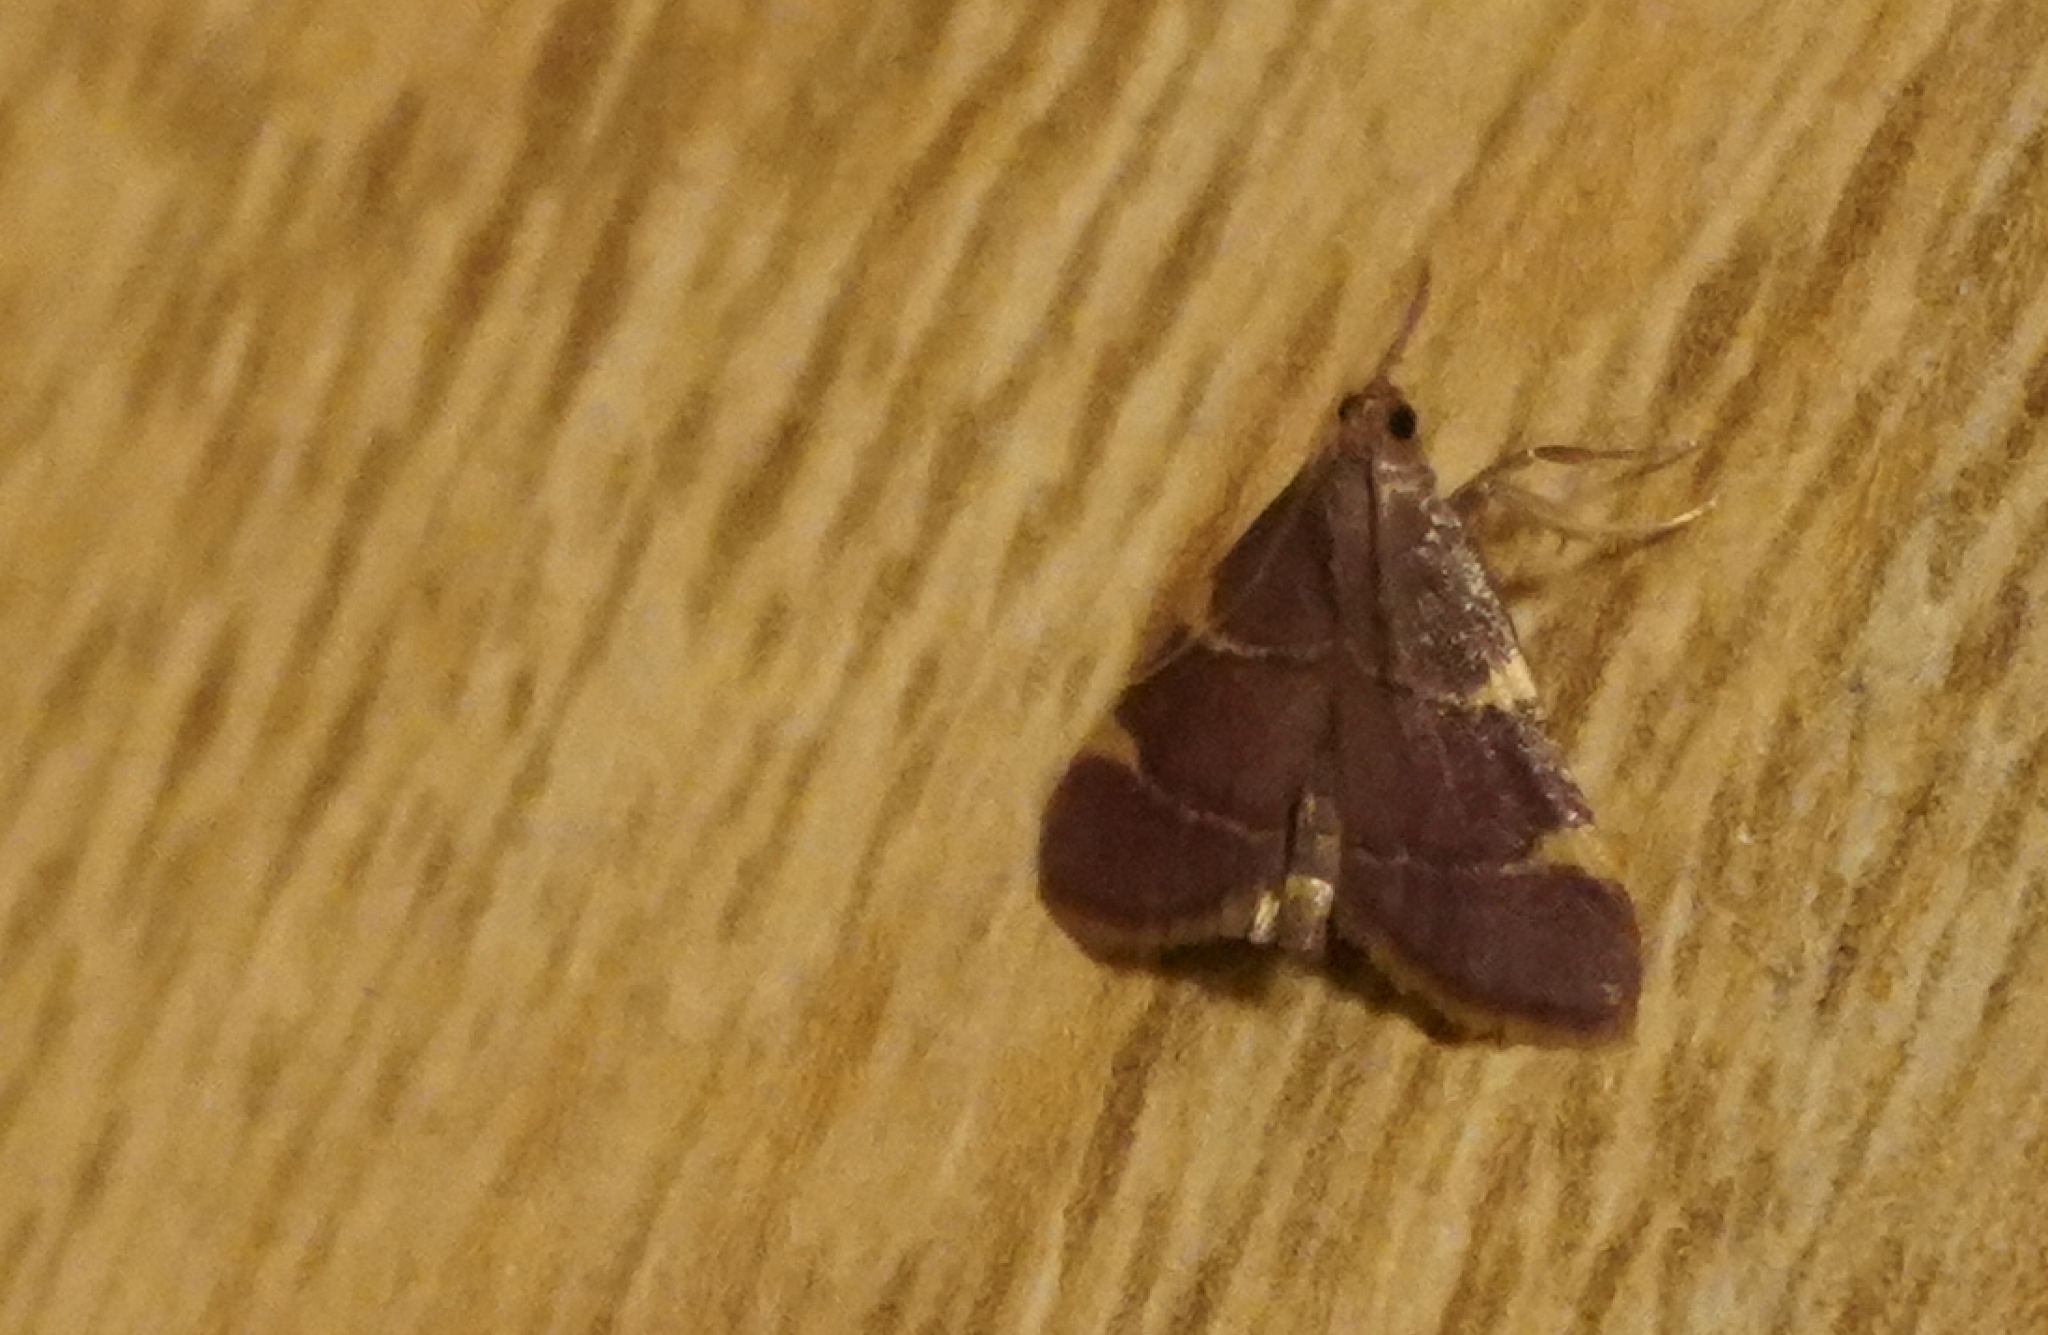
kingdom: Animalia
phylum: Arthropoda
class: Insecta
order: Lepidoptera
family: Pyralidae
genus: Hypsopygia
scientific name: Hypsopygia olinalis
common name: Yellow-fringed dolichomia moth
